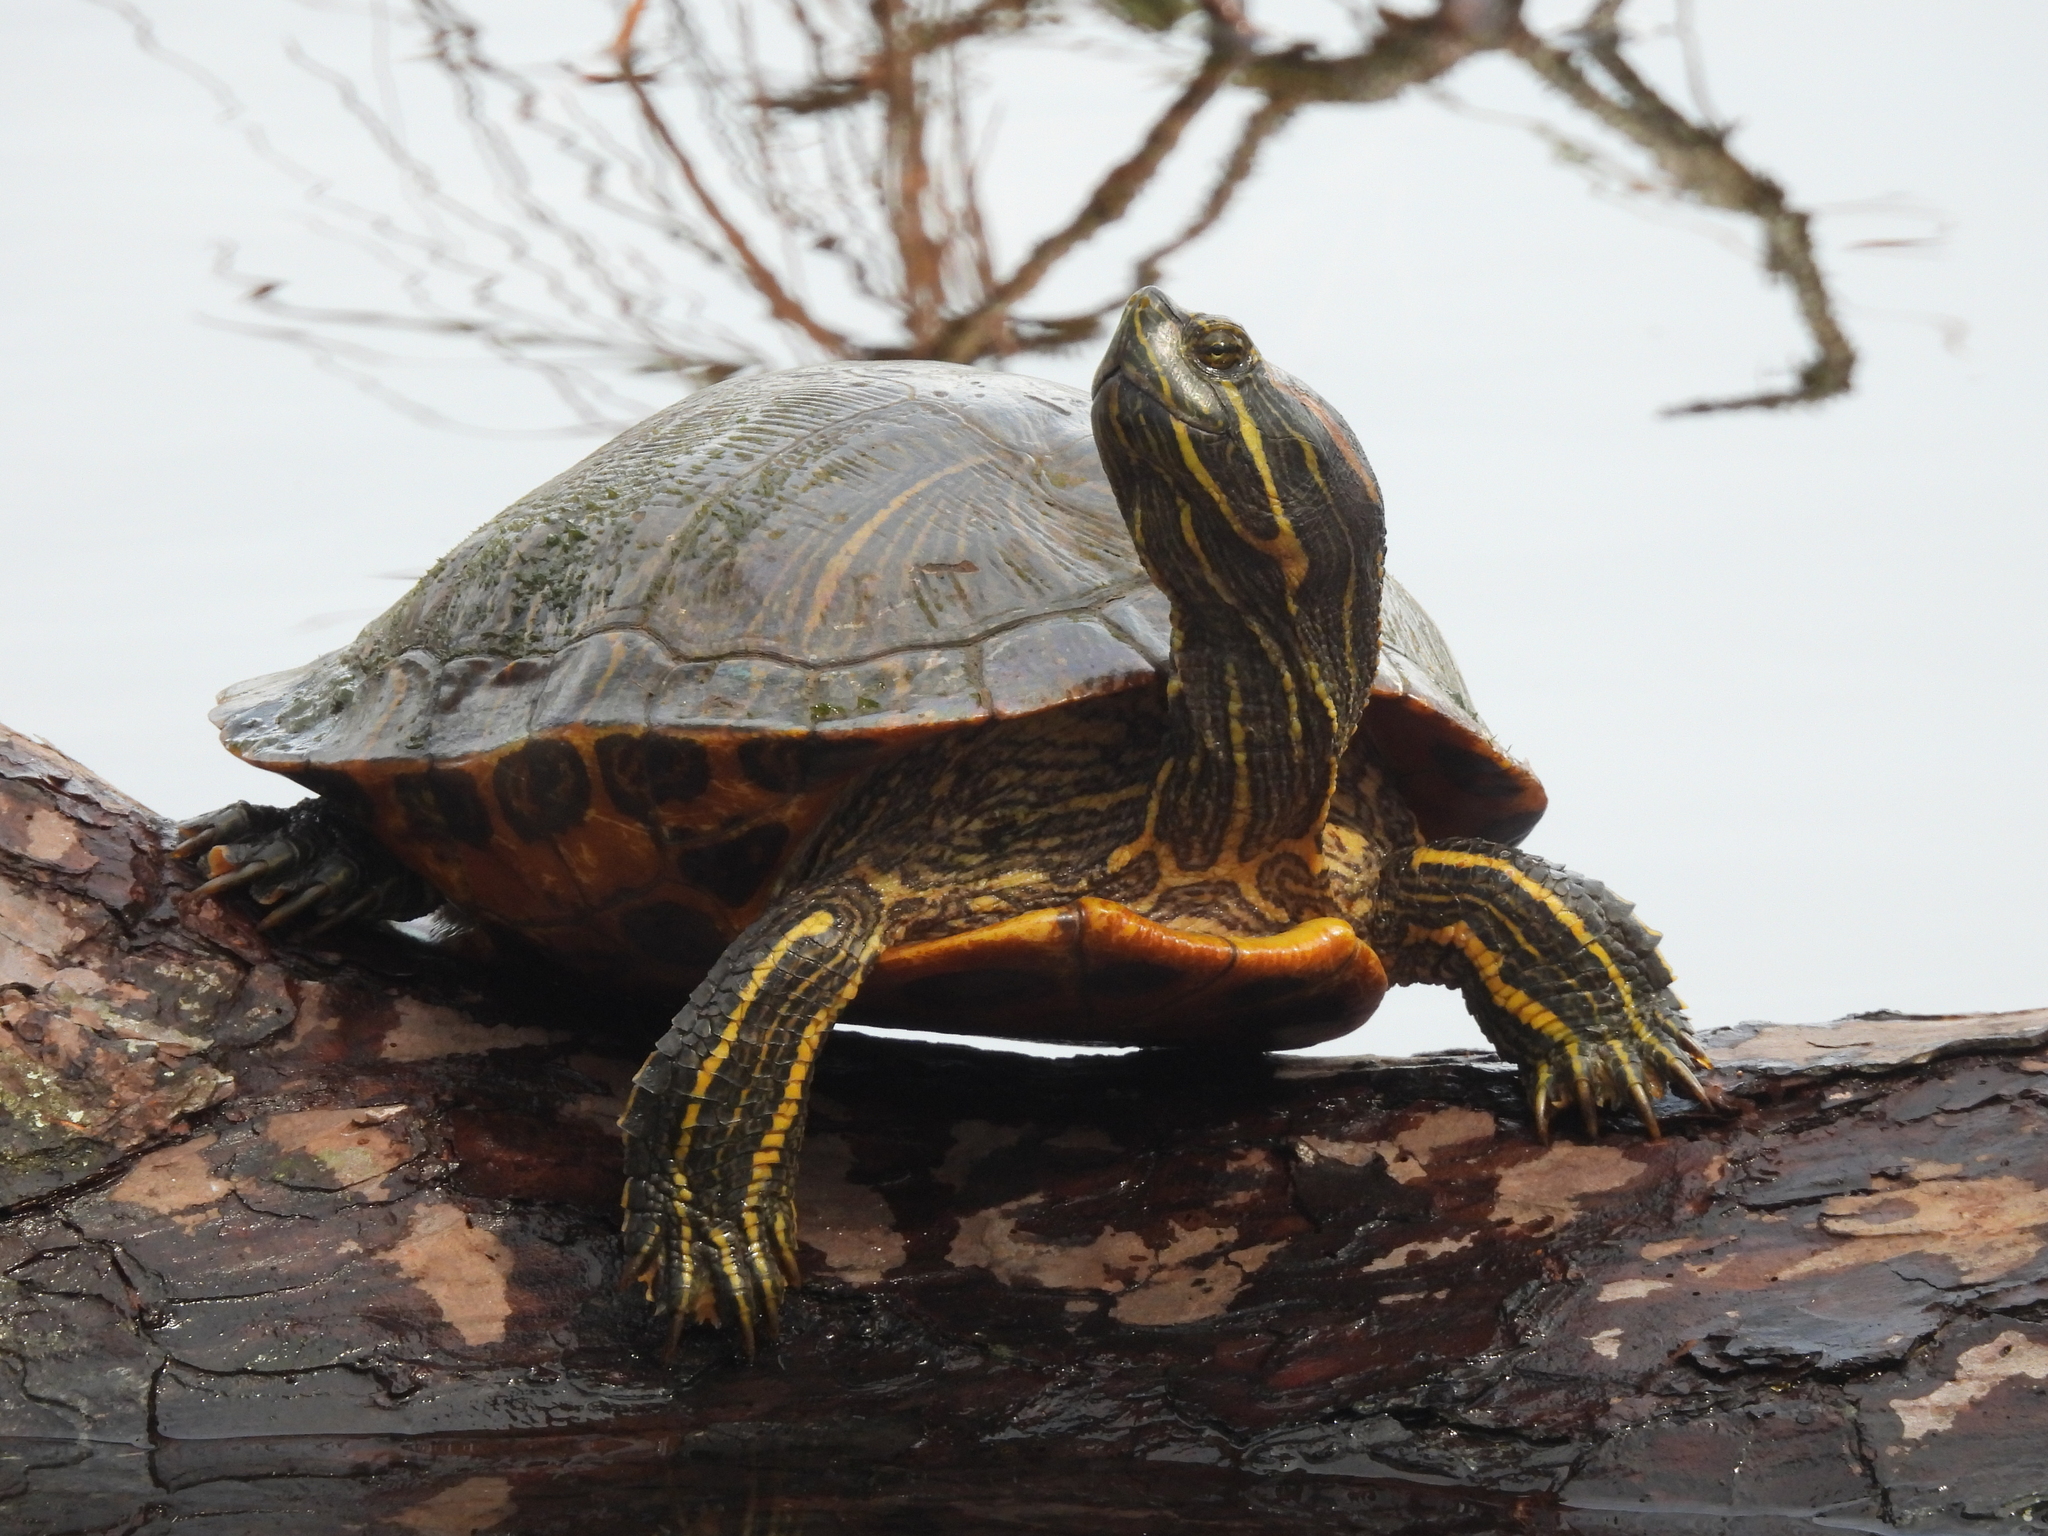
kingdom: Animalia
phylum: Chordata
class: Testudines
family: Emydidae
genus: Trachemys
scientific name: Trachemys scripta
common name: Slider
